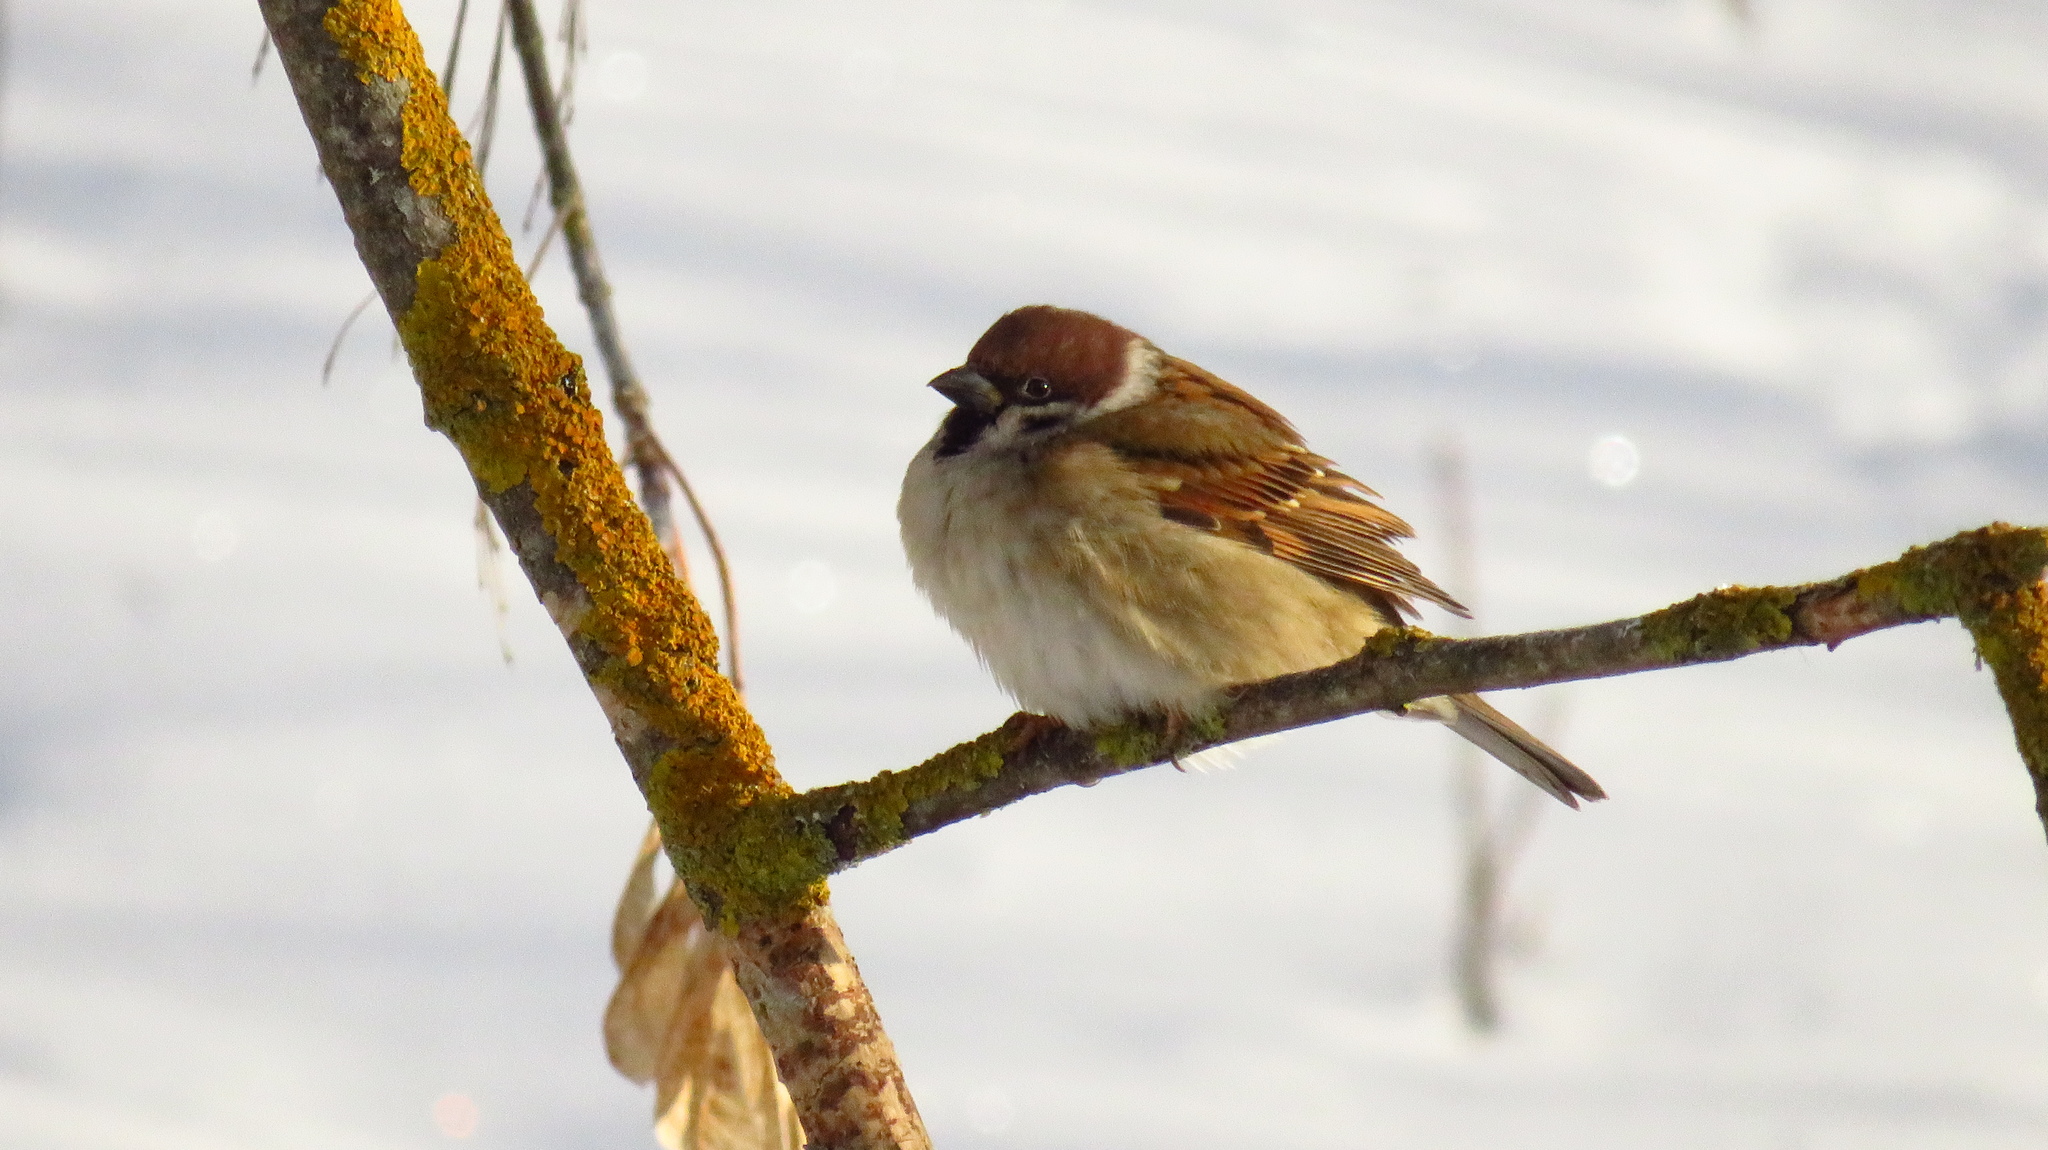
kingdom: Animalia
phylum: Chordata
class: Aves
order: Passeriformes
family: Passeridae
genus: Passer
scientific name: Passer montanus
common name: Eurasian tree sparrow
